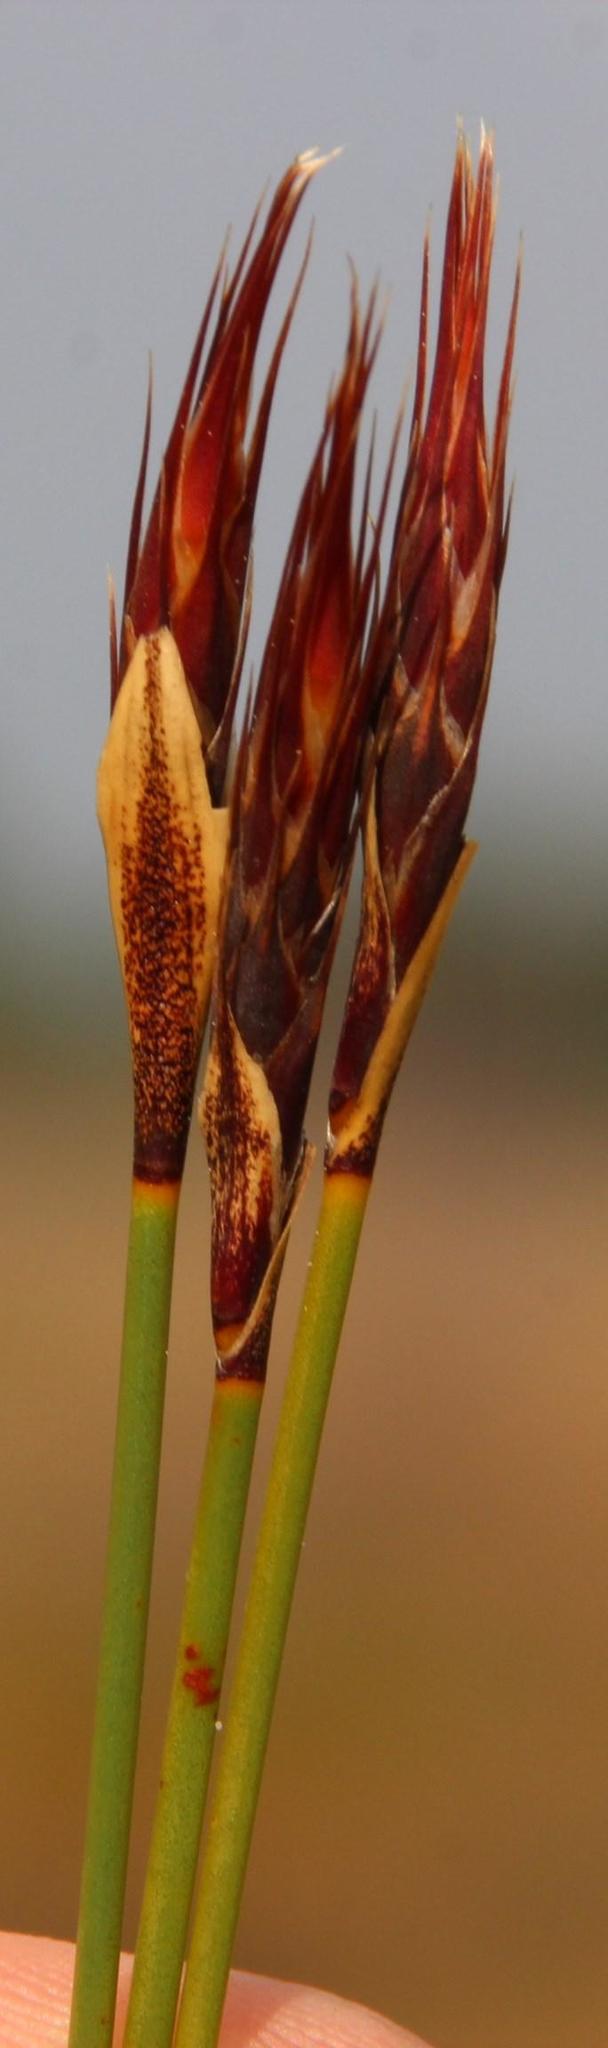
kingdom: Plantae
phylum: Tracheophyta
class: Liliopsida
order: Poales
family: Restionaceae
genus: Hypodiscus
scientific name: Hypodiscus aristatus
